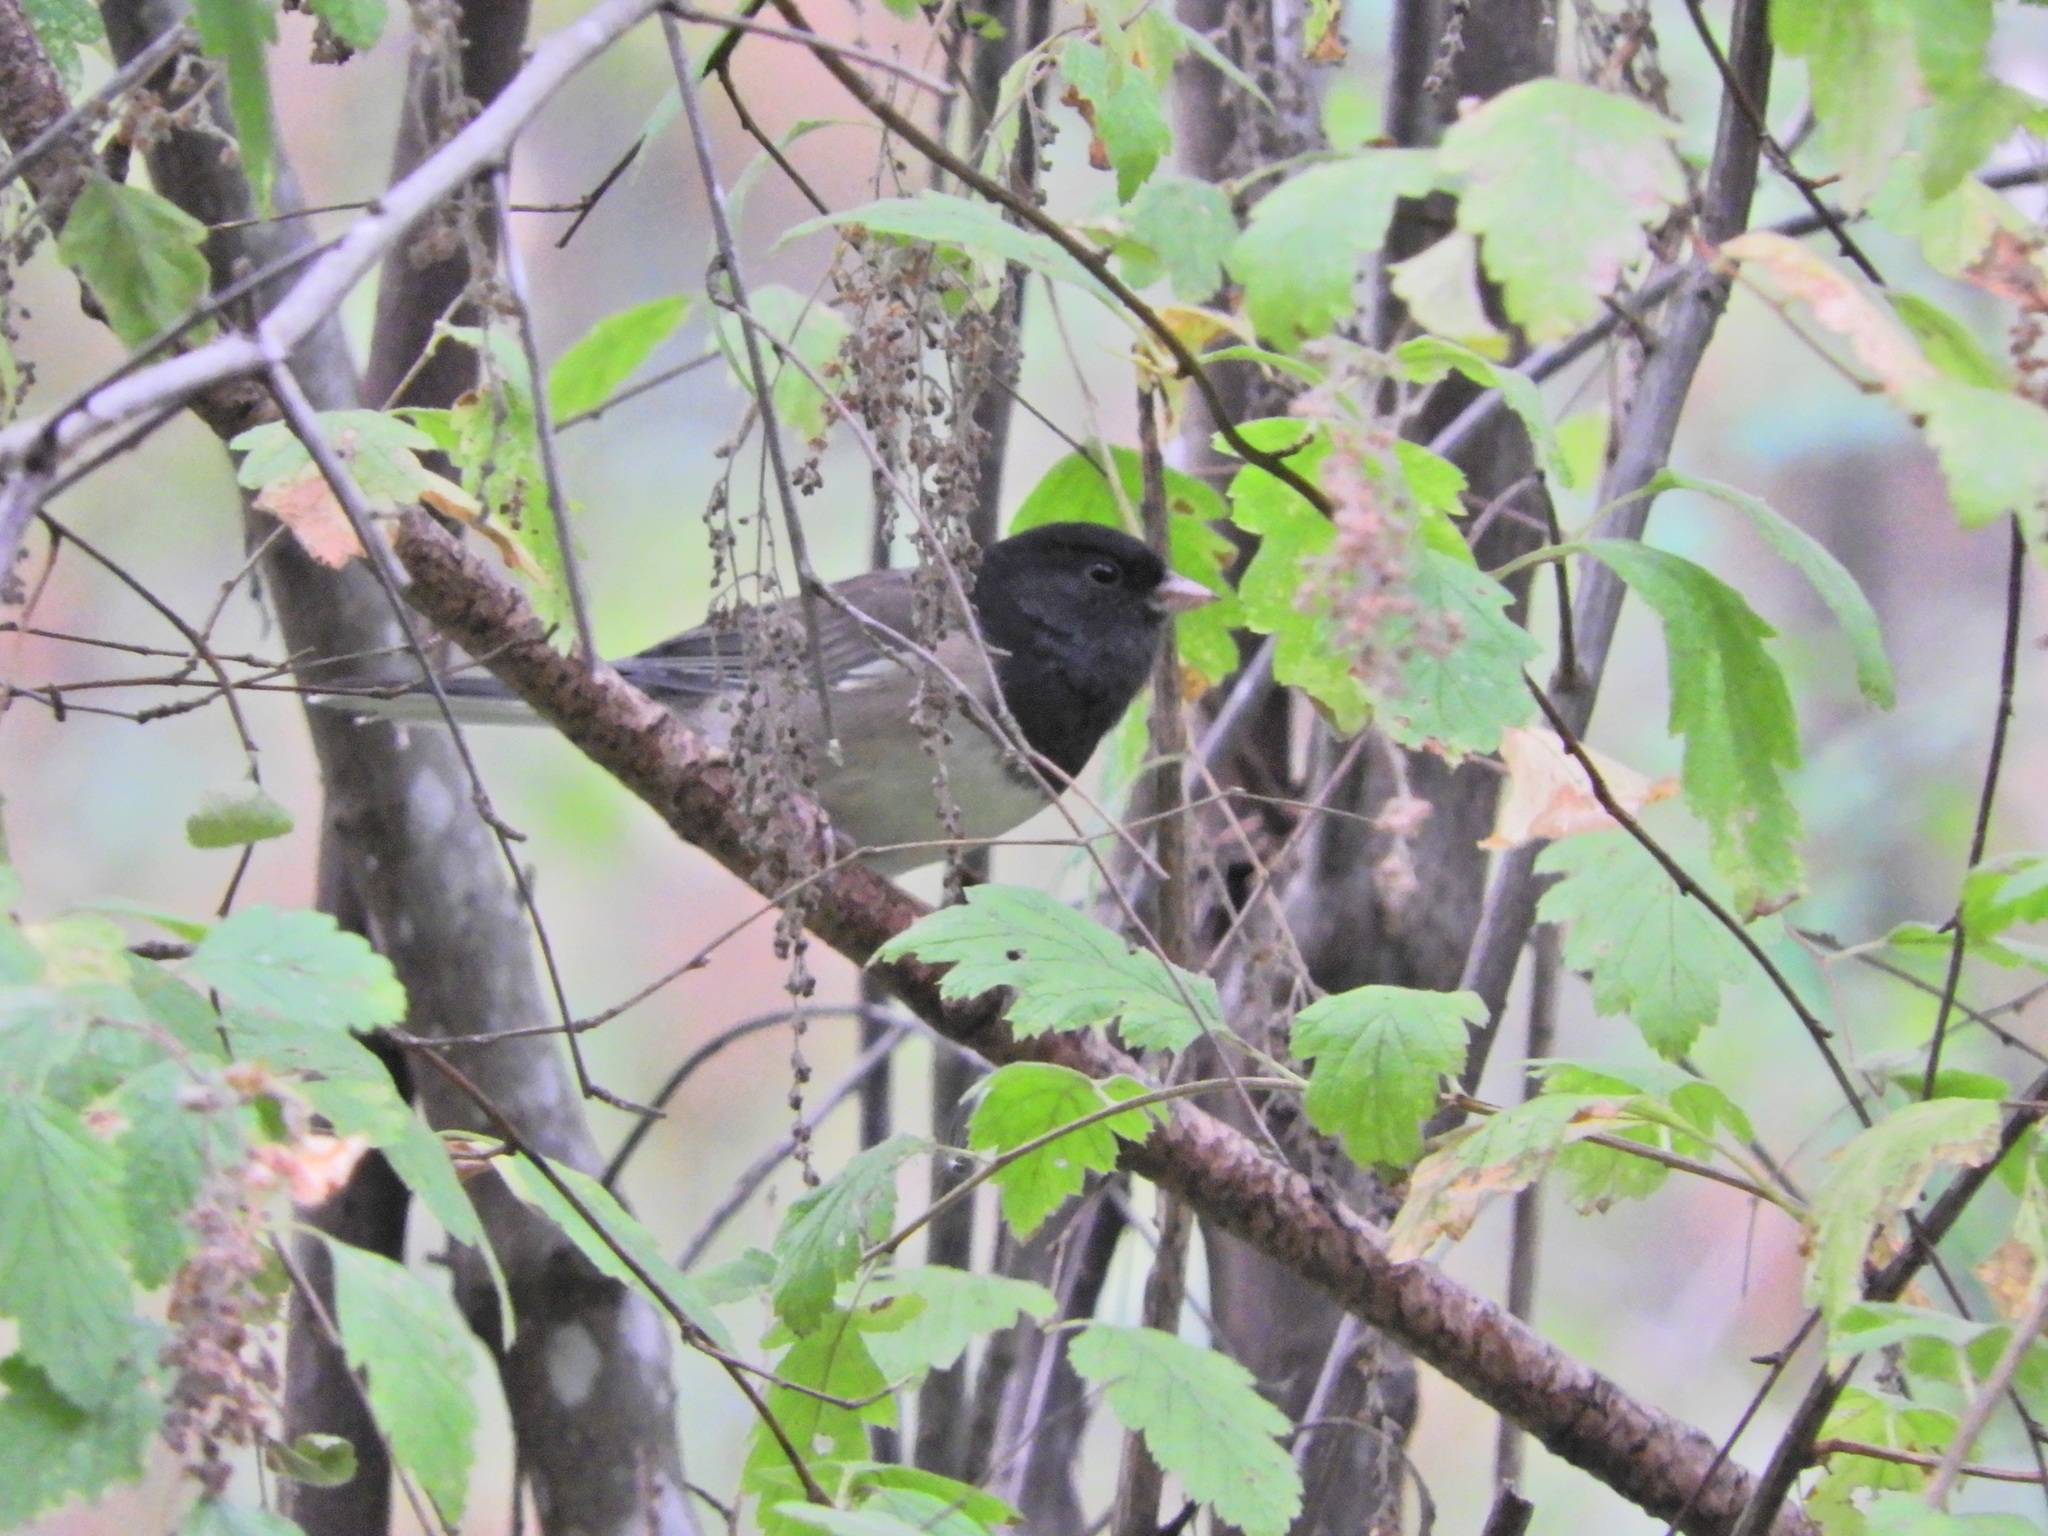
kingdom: Animalia
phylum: Chordata
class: Aves
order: Passeriformes
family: Passerellidae
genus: Junco
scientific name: Junco hyemalis
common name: Dark-eyed junco
